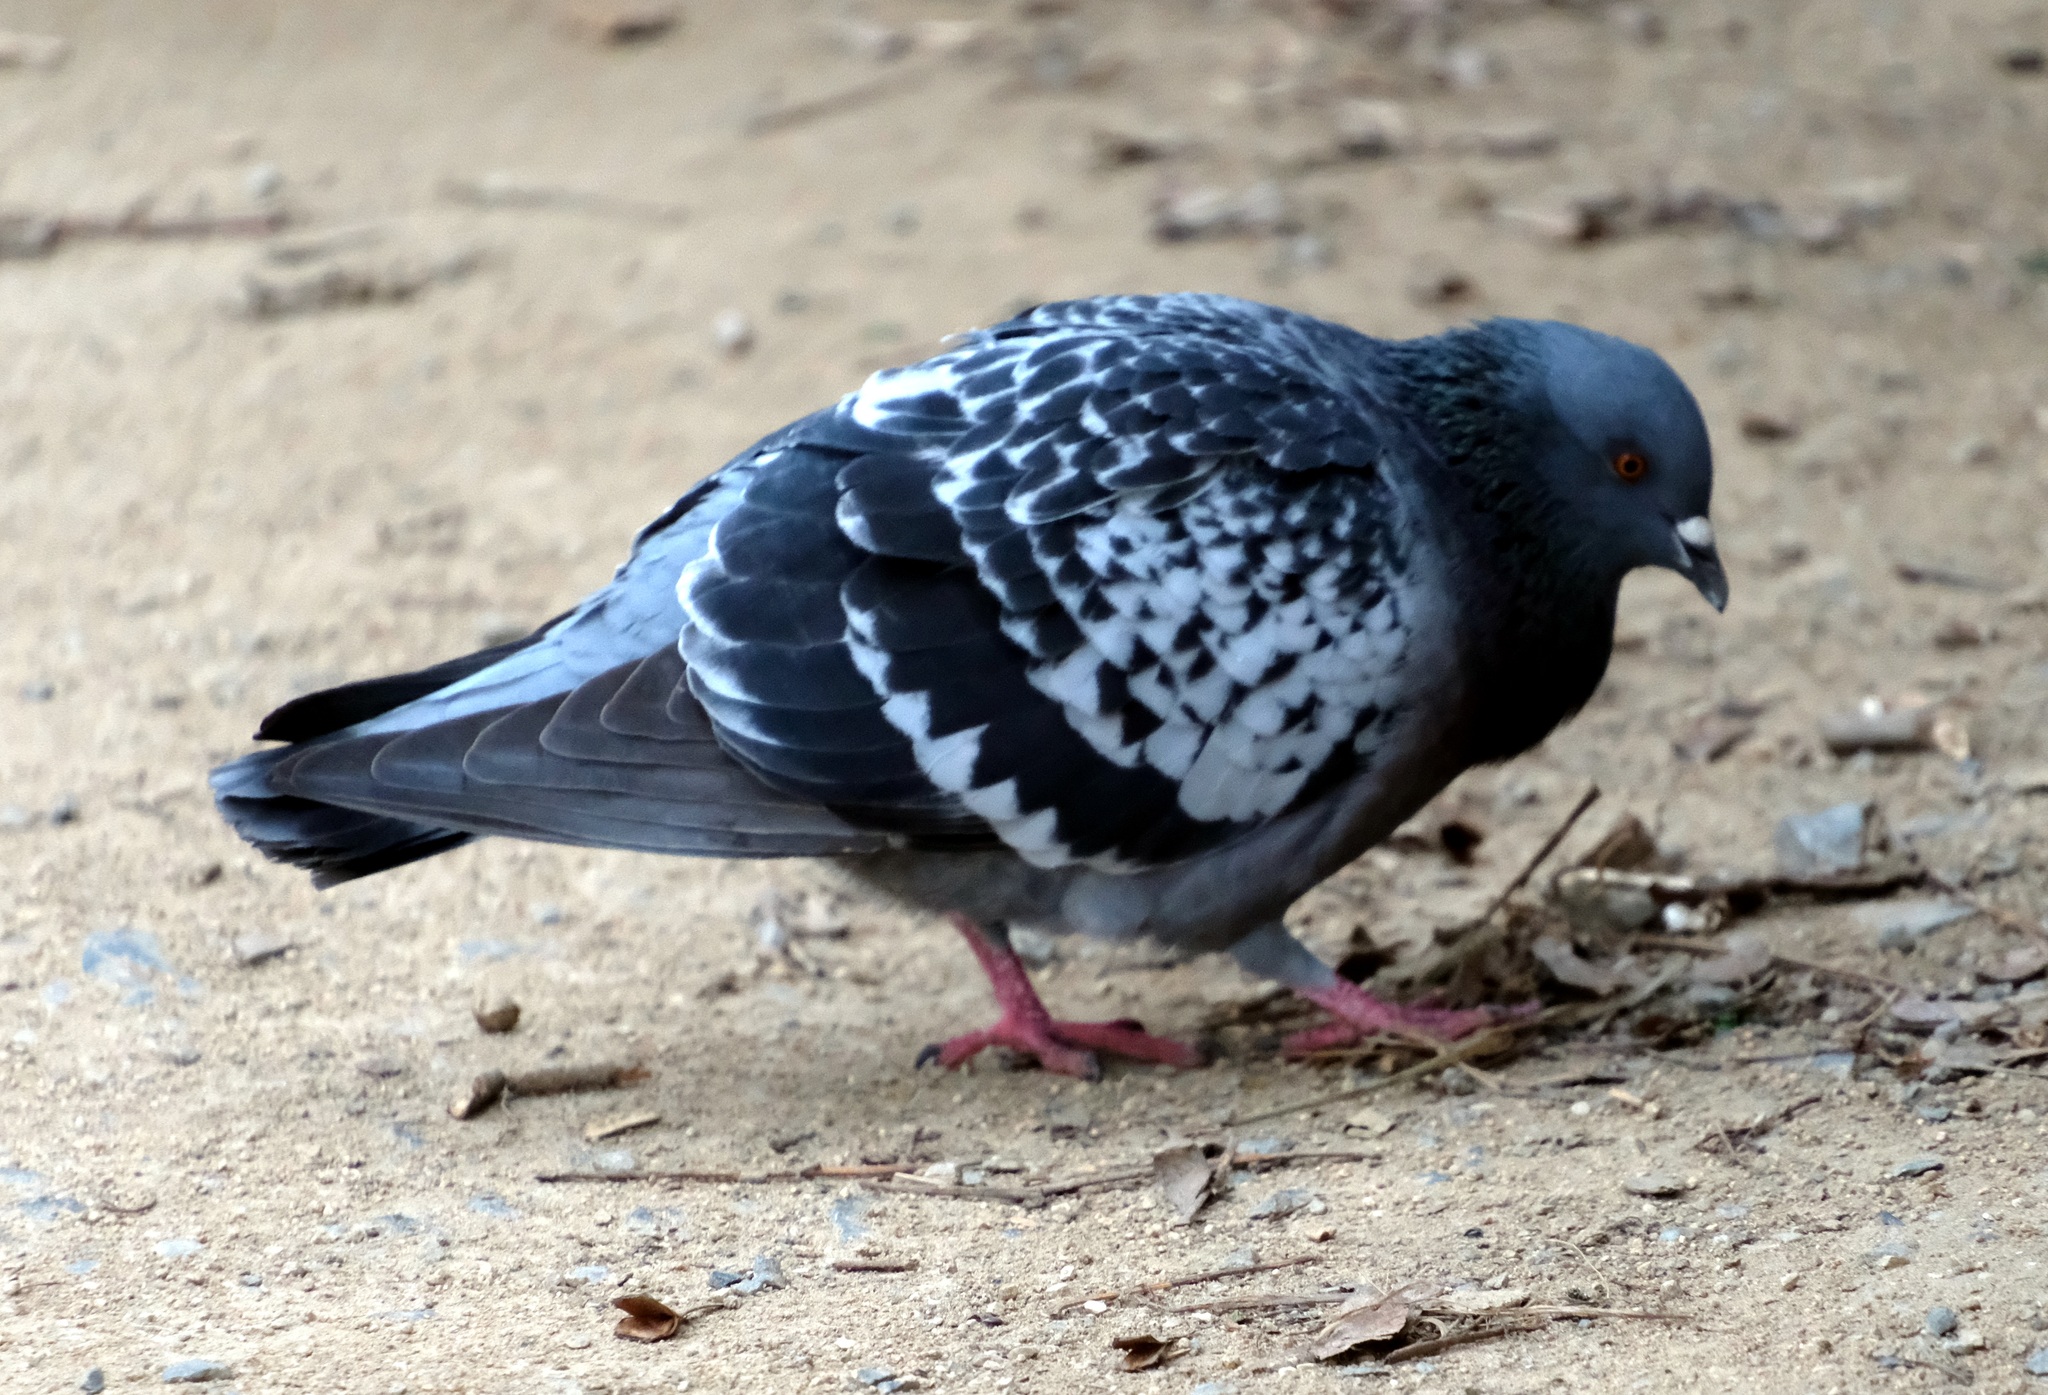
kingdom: Animalia
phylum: Chordata
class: Aves
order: Columbiformes
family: Columbidae
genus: Columba
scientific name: Columba livia
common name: Rock pigeon
